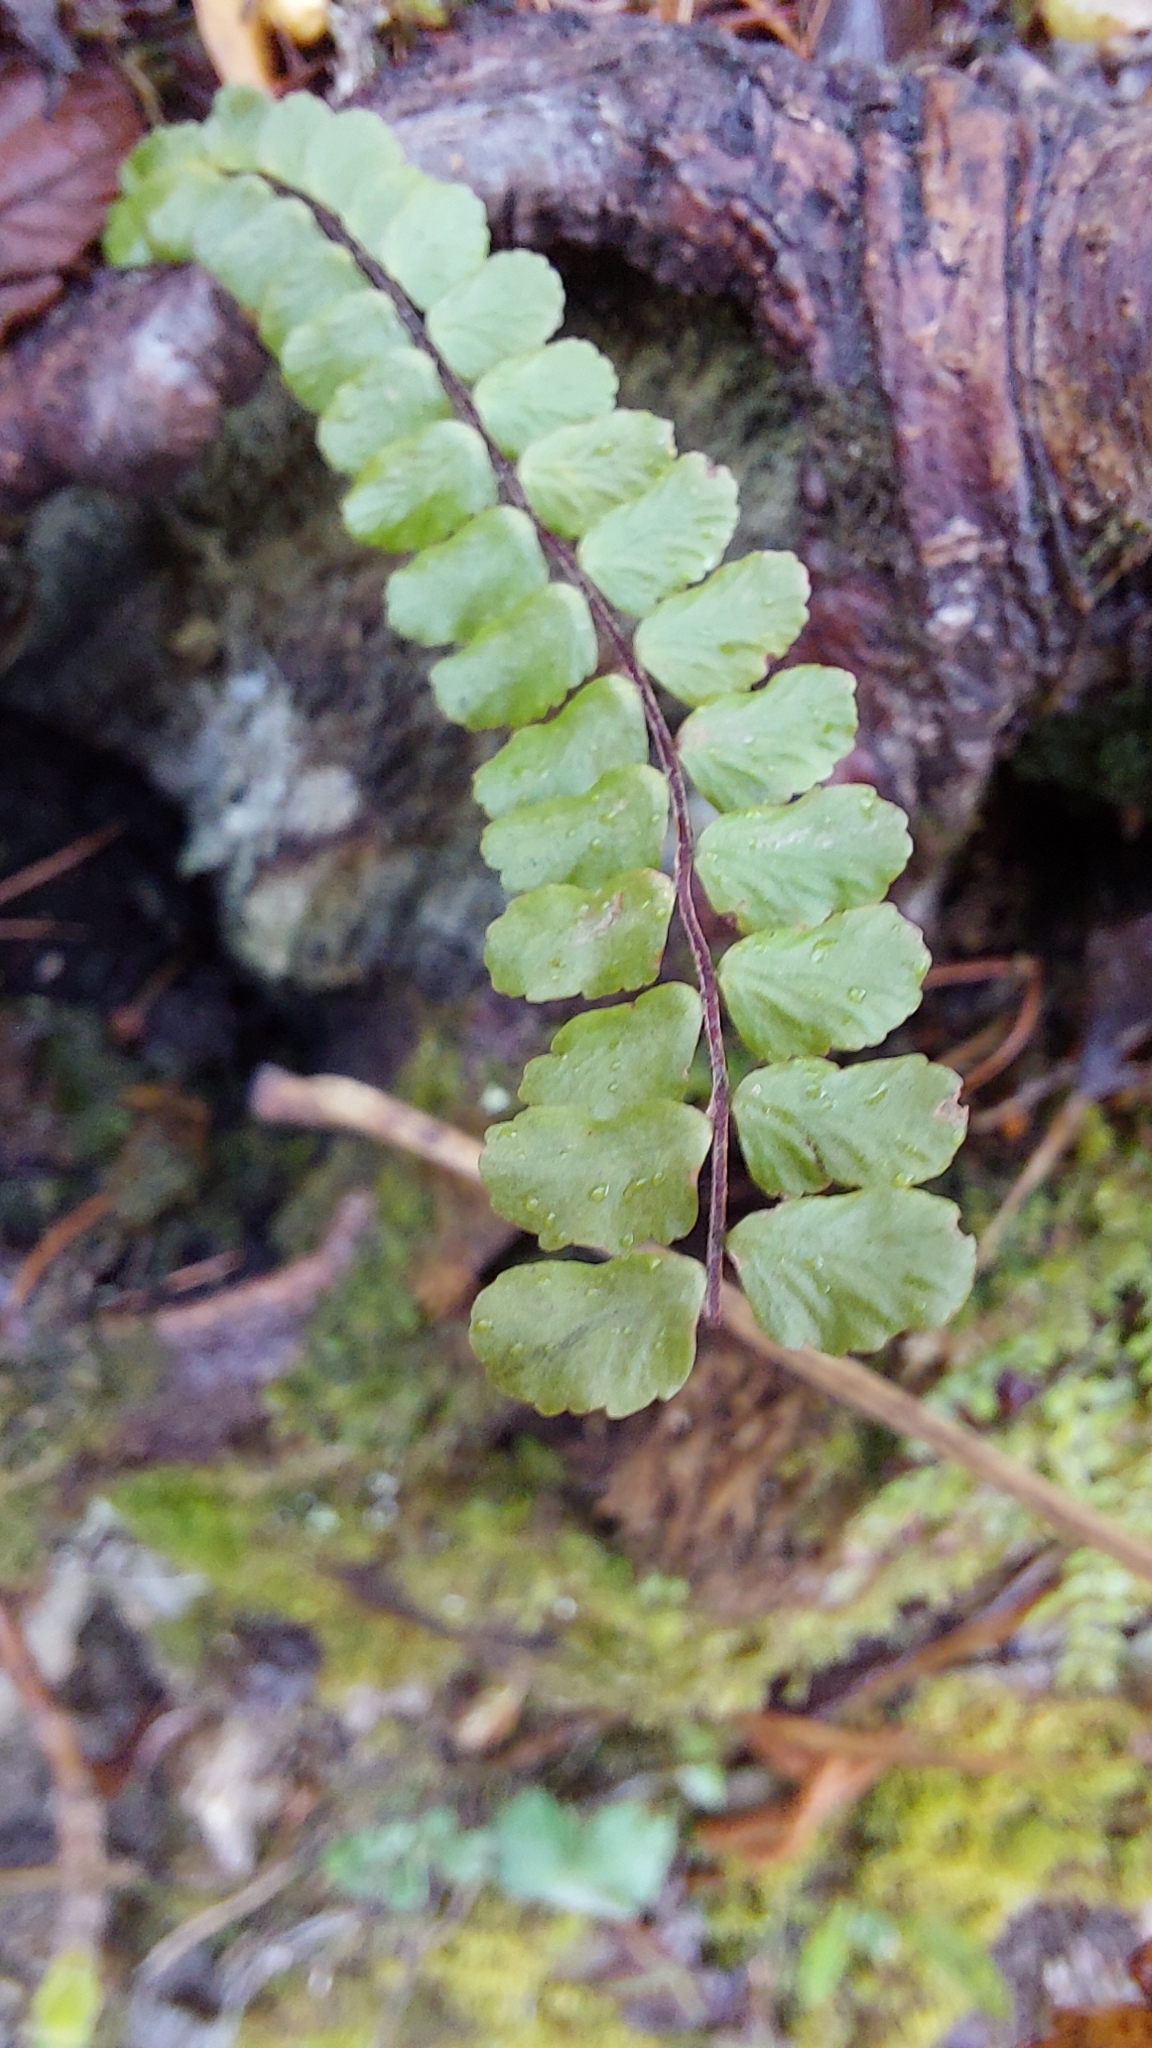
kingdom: Plantae
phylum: Tracheophyta
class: Polypodiopsida
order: Polypodiales
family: Aspleniaceae
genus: Asplenium
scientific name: Asplenium trichomanes
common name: Maidenhair spleenwort
